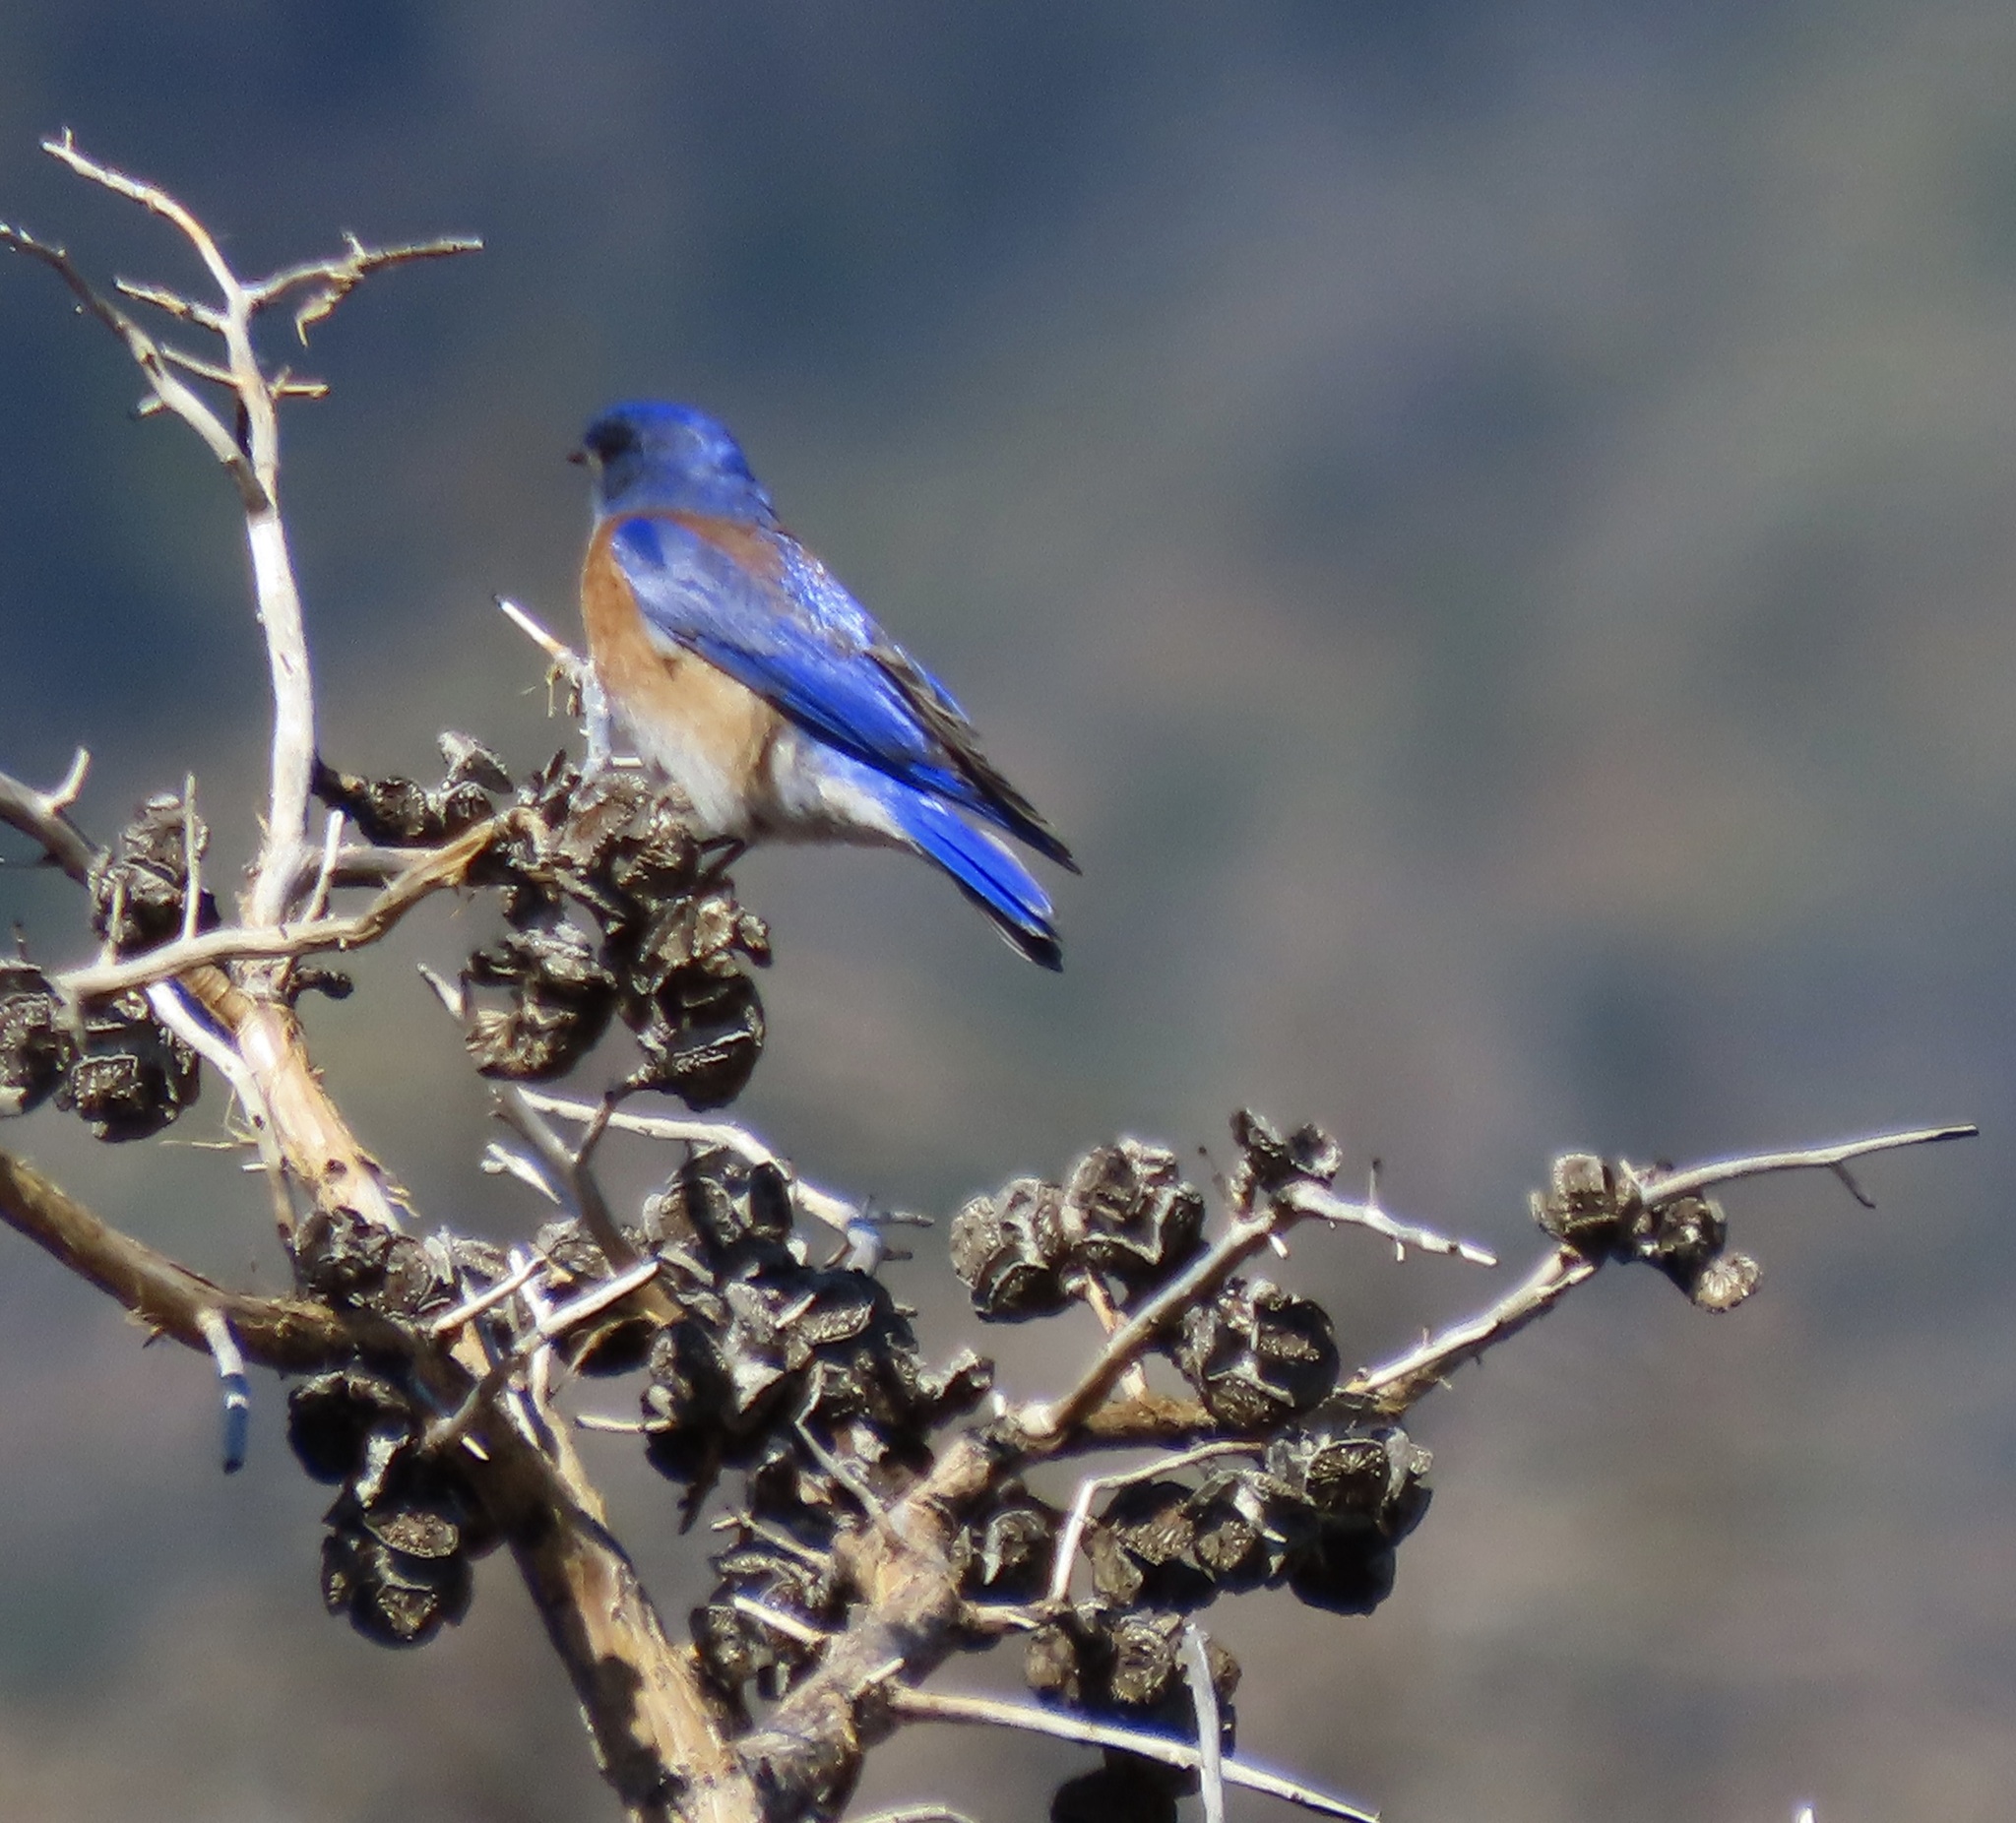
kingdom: Animalia
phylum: Chordata
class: Aves
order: Passeriformes
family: Turdidae
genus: Sialia
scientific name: Sialia mexicana
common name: Western bluebird
